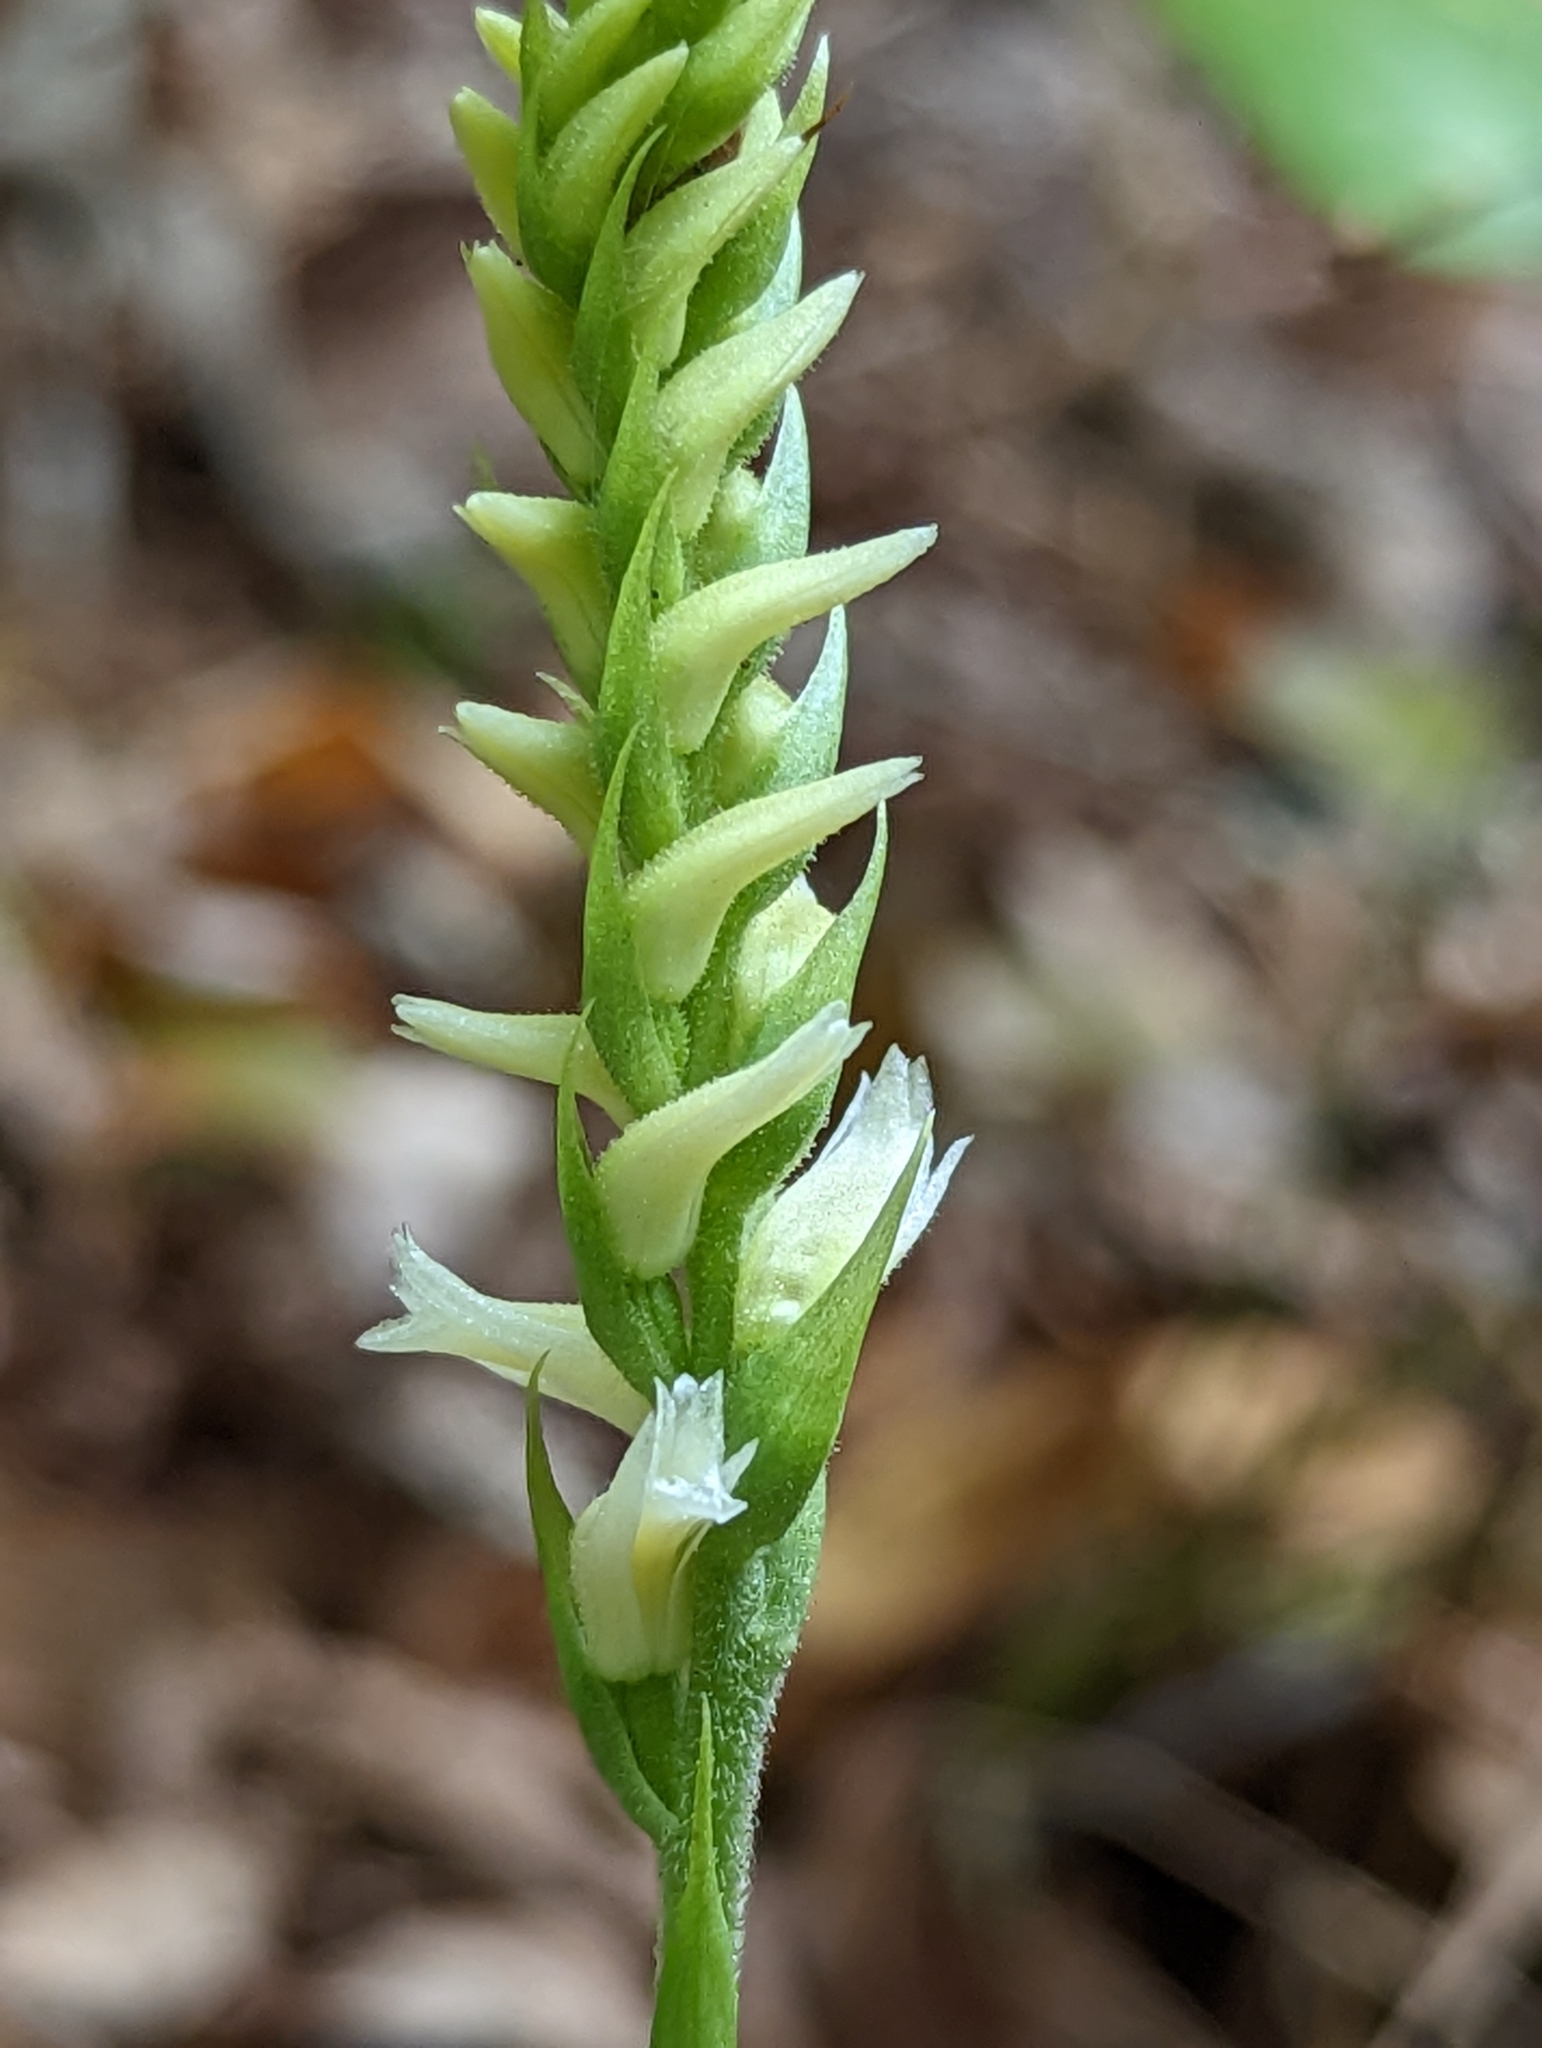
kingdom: Plantae
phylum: Tracheophyta
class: Liliopsida
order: Asparagales
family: Orchidaceae
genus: Spiranthes
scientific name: Spiranthes ochroleuca
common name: Yellow ladies'-tresses
